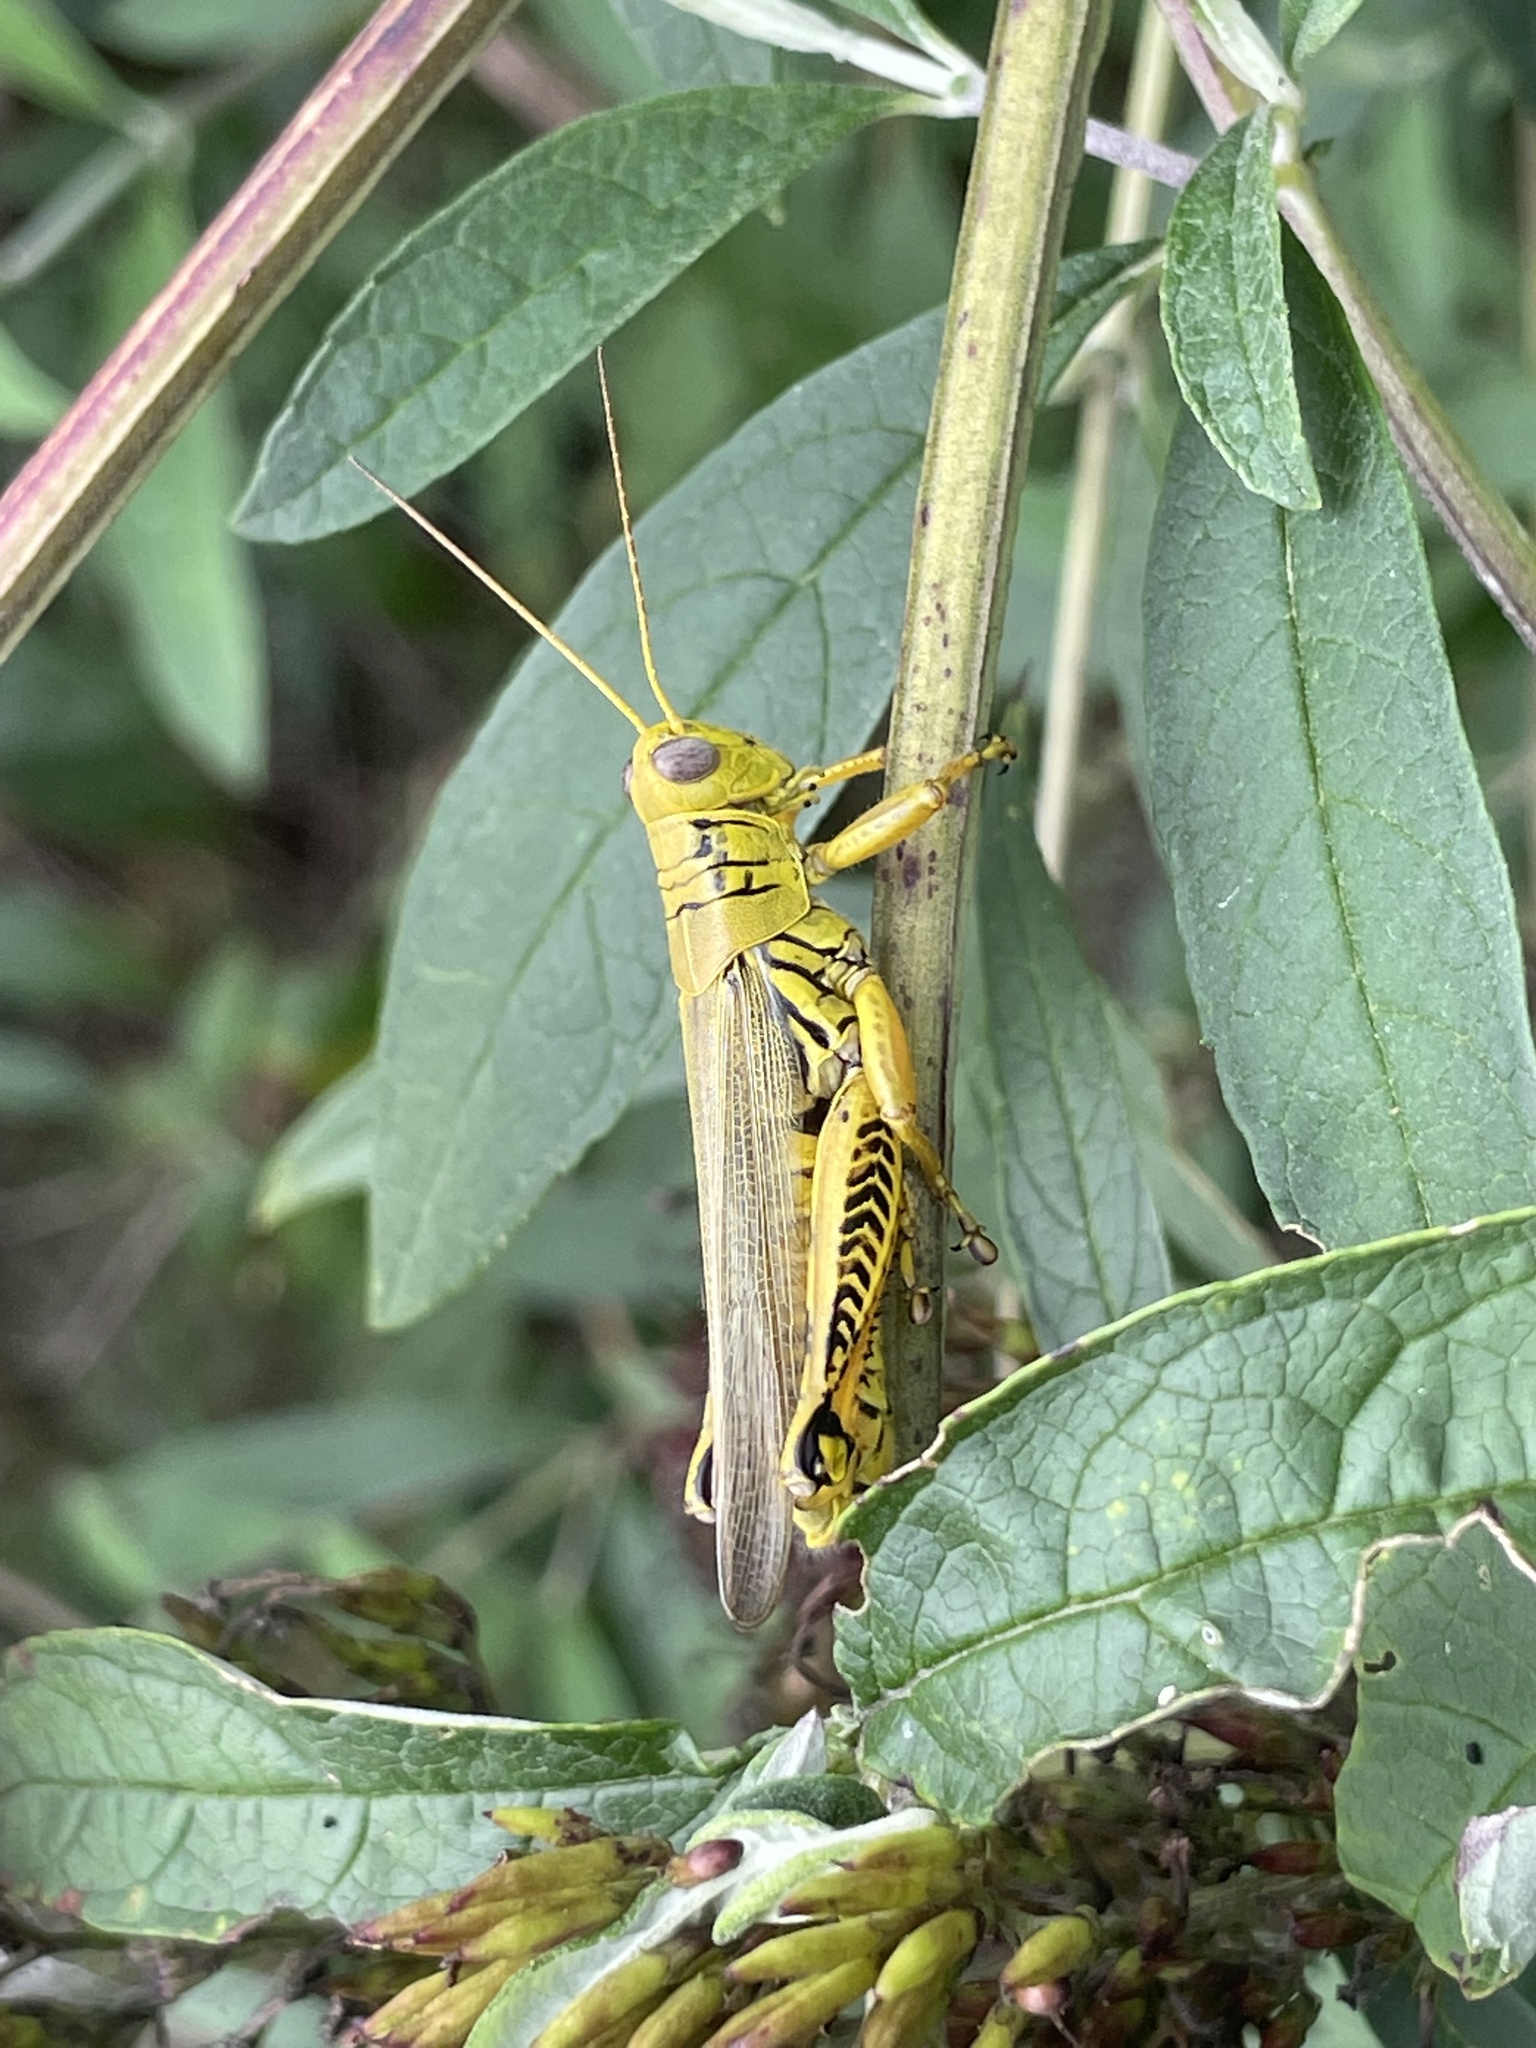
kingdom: Animalia
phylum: Arthropoda
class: Insecta
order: Orthoptera
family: Acrididae
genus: Melanoplus
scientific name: Melanoplus differentialis
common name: Differential grasshopper
